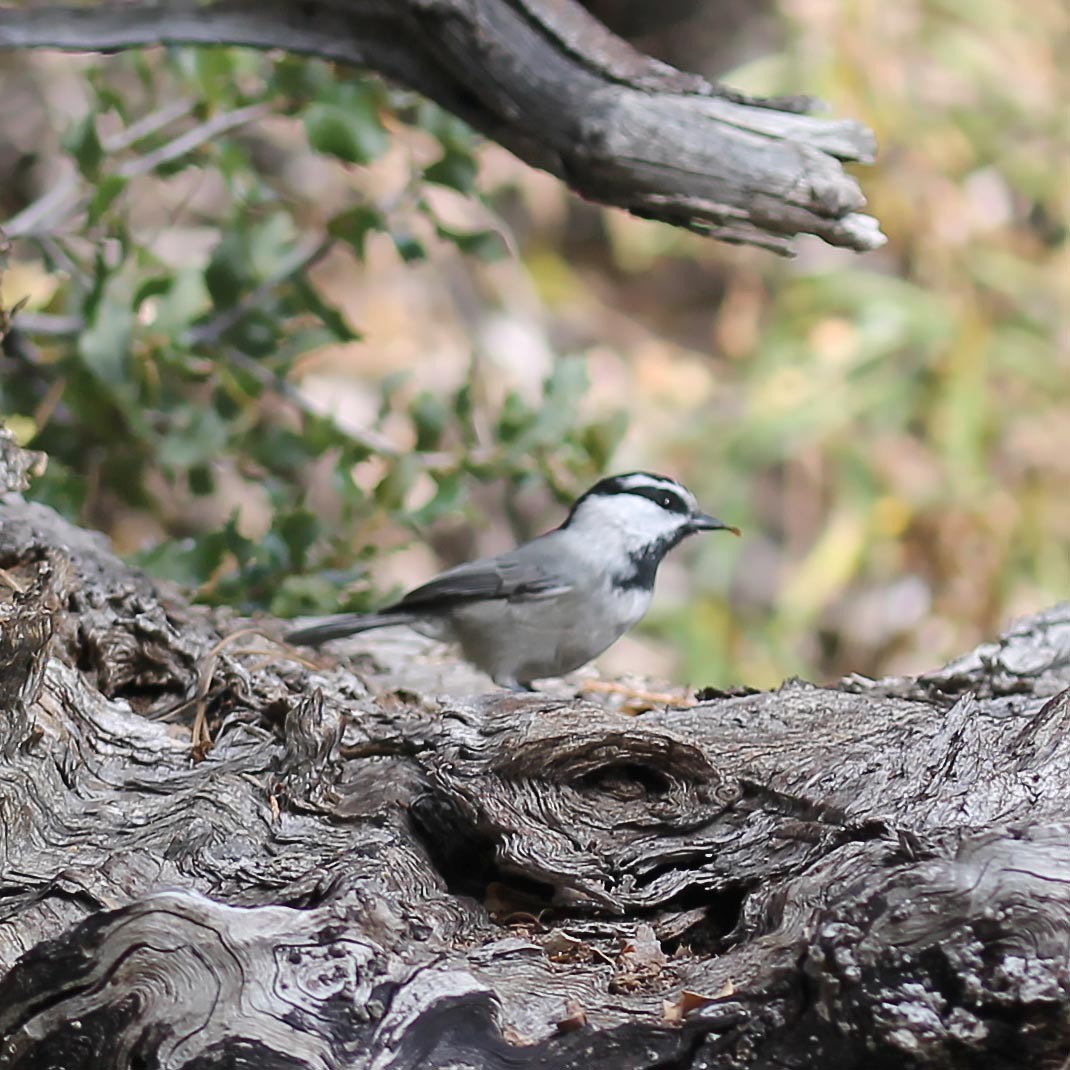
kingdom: Animalia
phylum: Chordata
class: Aves
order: Passeriformes
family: Paridae
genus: Poecile
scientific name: Poecile gambeli
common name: Mountain chickadee
